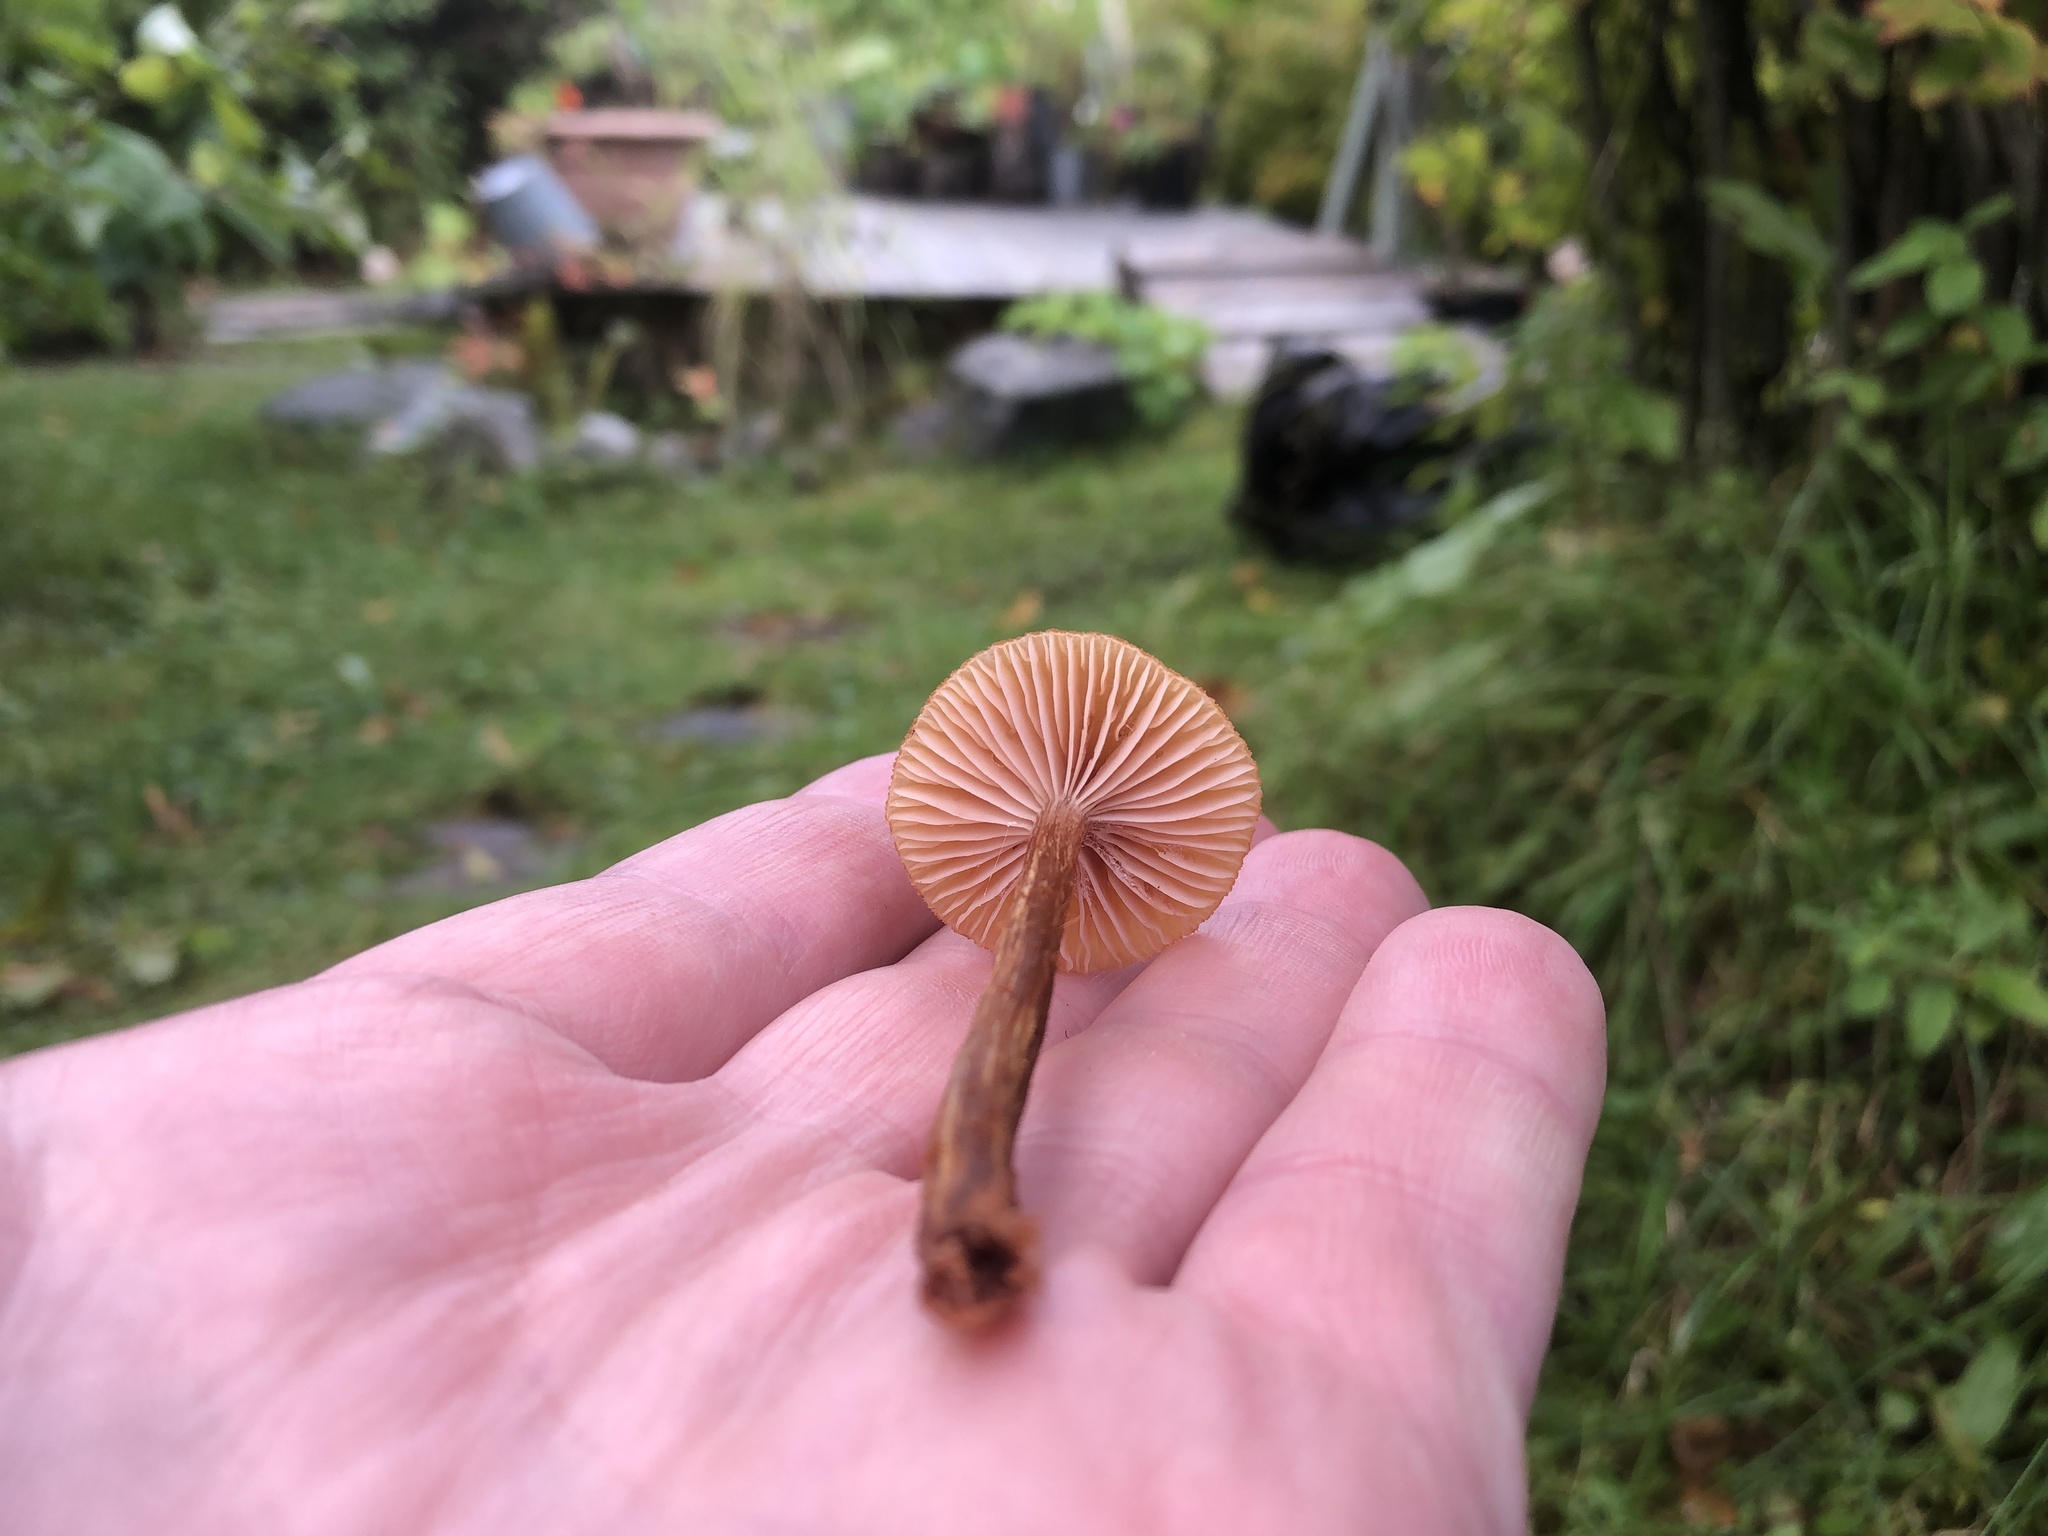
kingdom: Fungi
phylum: Basidiomycota
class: Agaricomycetes
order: Agaricales
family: Hydnangiaceae
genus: Laccaria
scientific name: Laccaria laccata
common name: Deceiver
